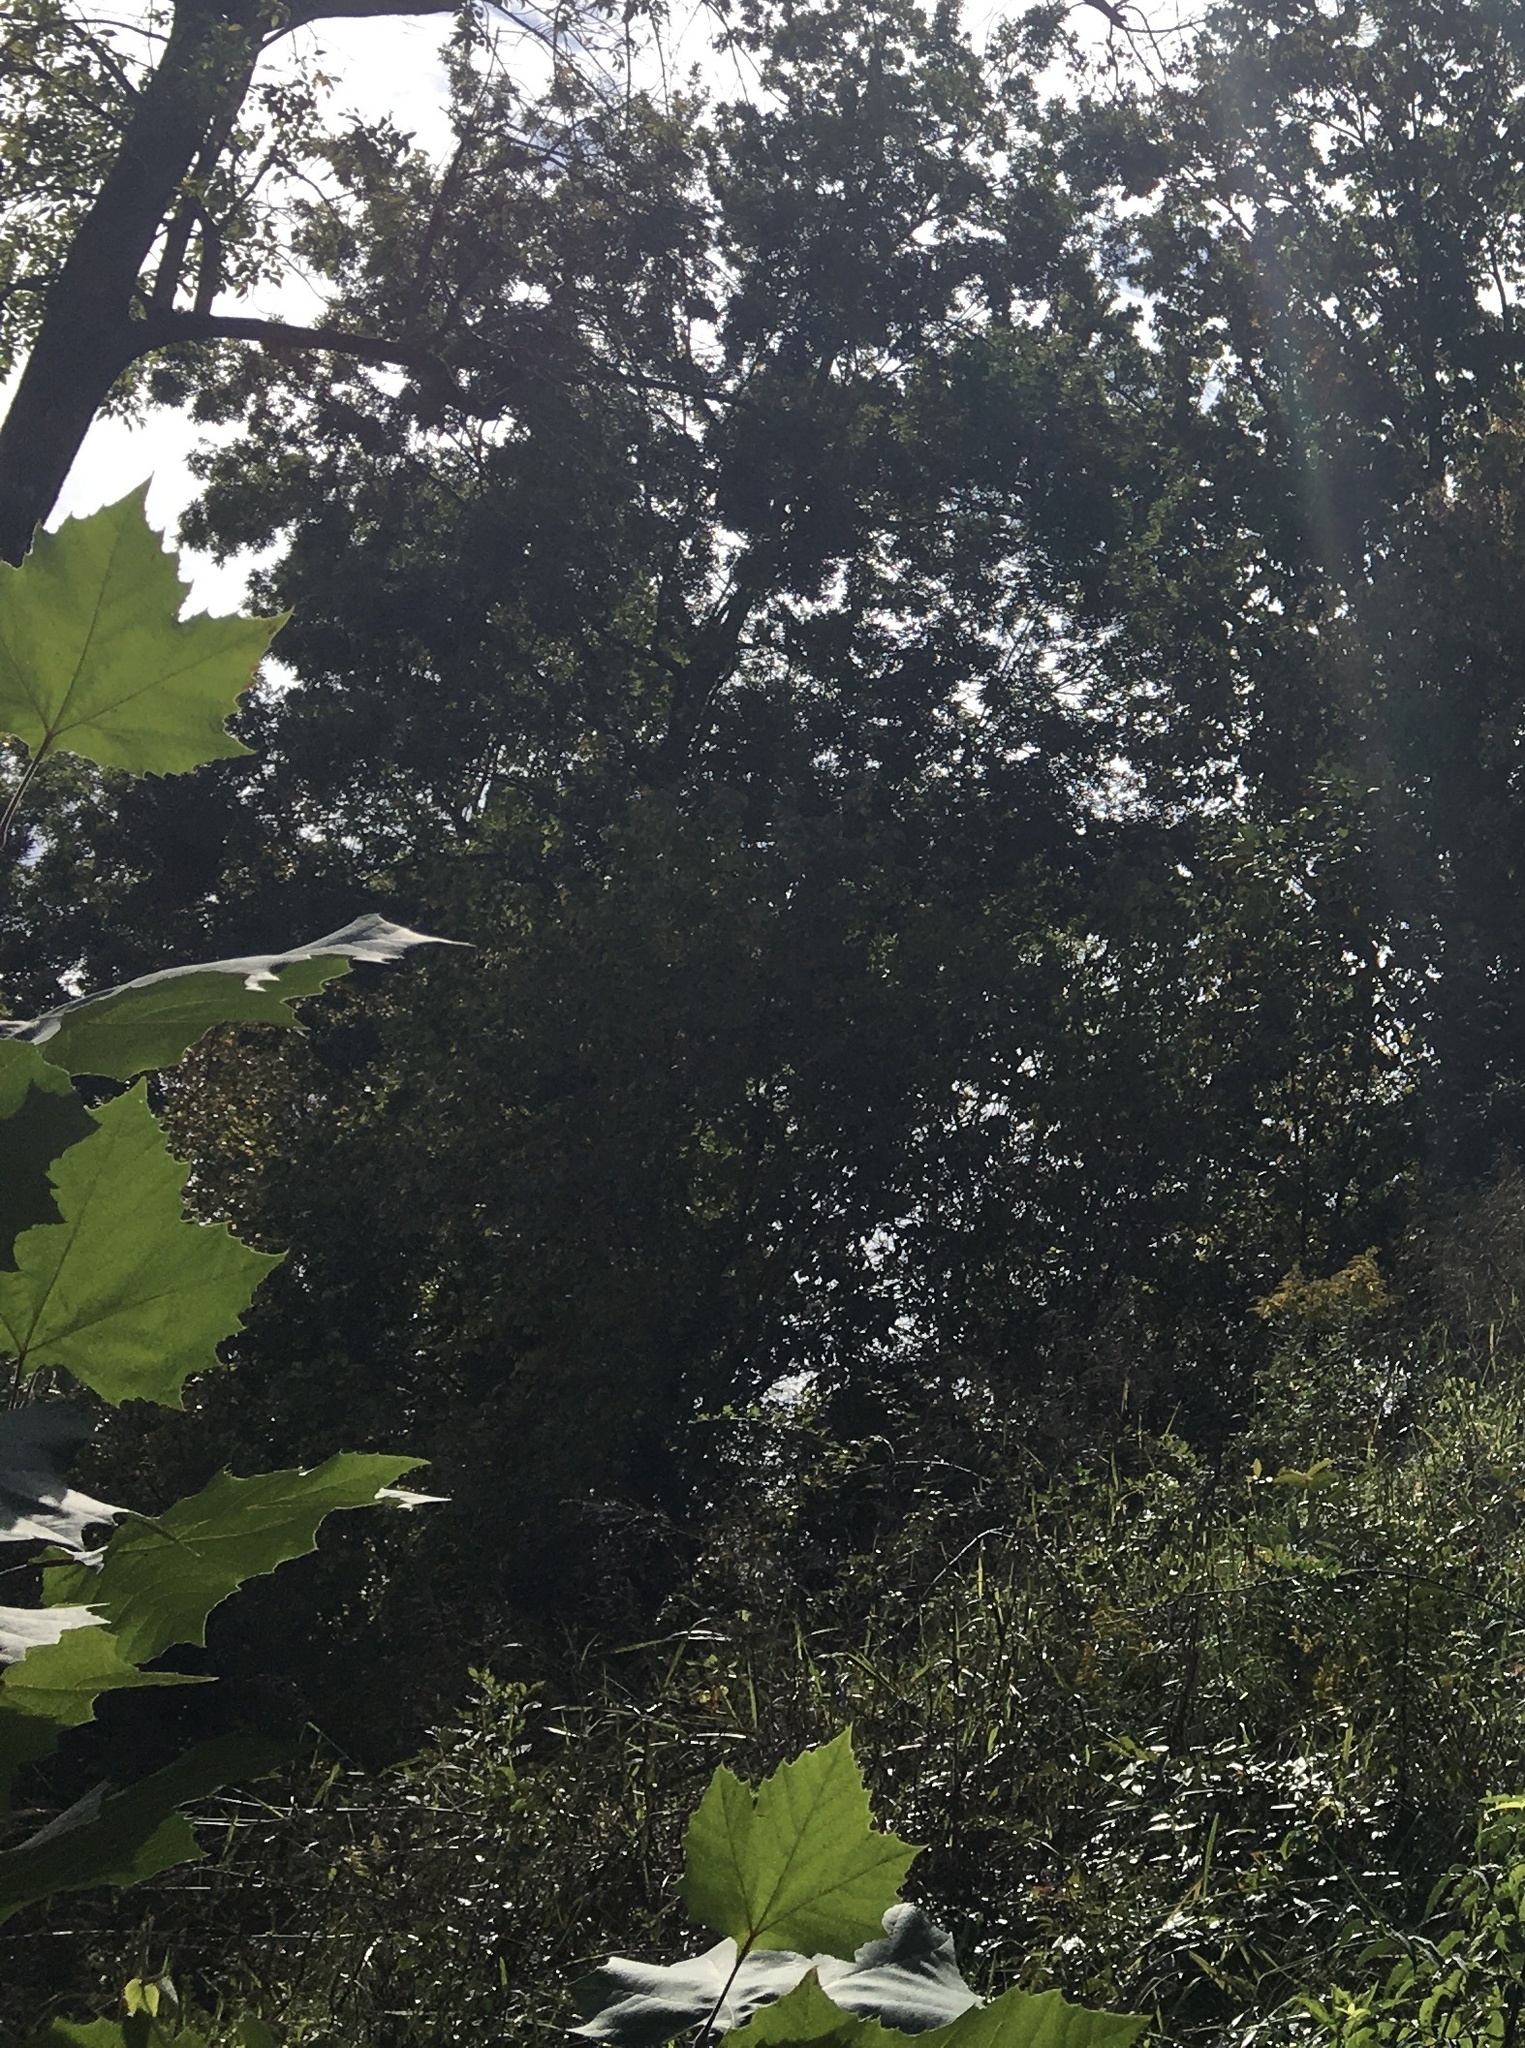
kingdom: Plantae
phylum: Tracheophyta
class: Magnoliopsida
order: Proteales
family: Platanaceae
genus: Platanus
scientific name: Platanus occidentalis
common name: American sycamore
